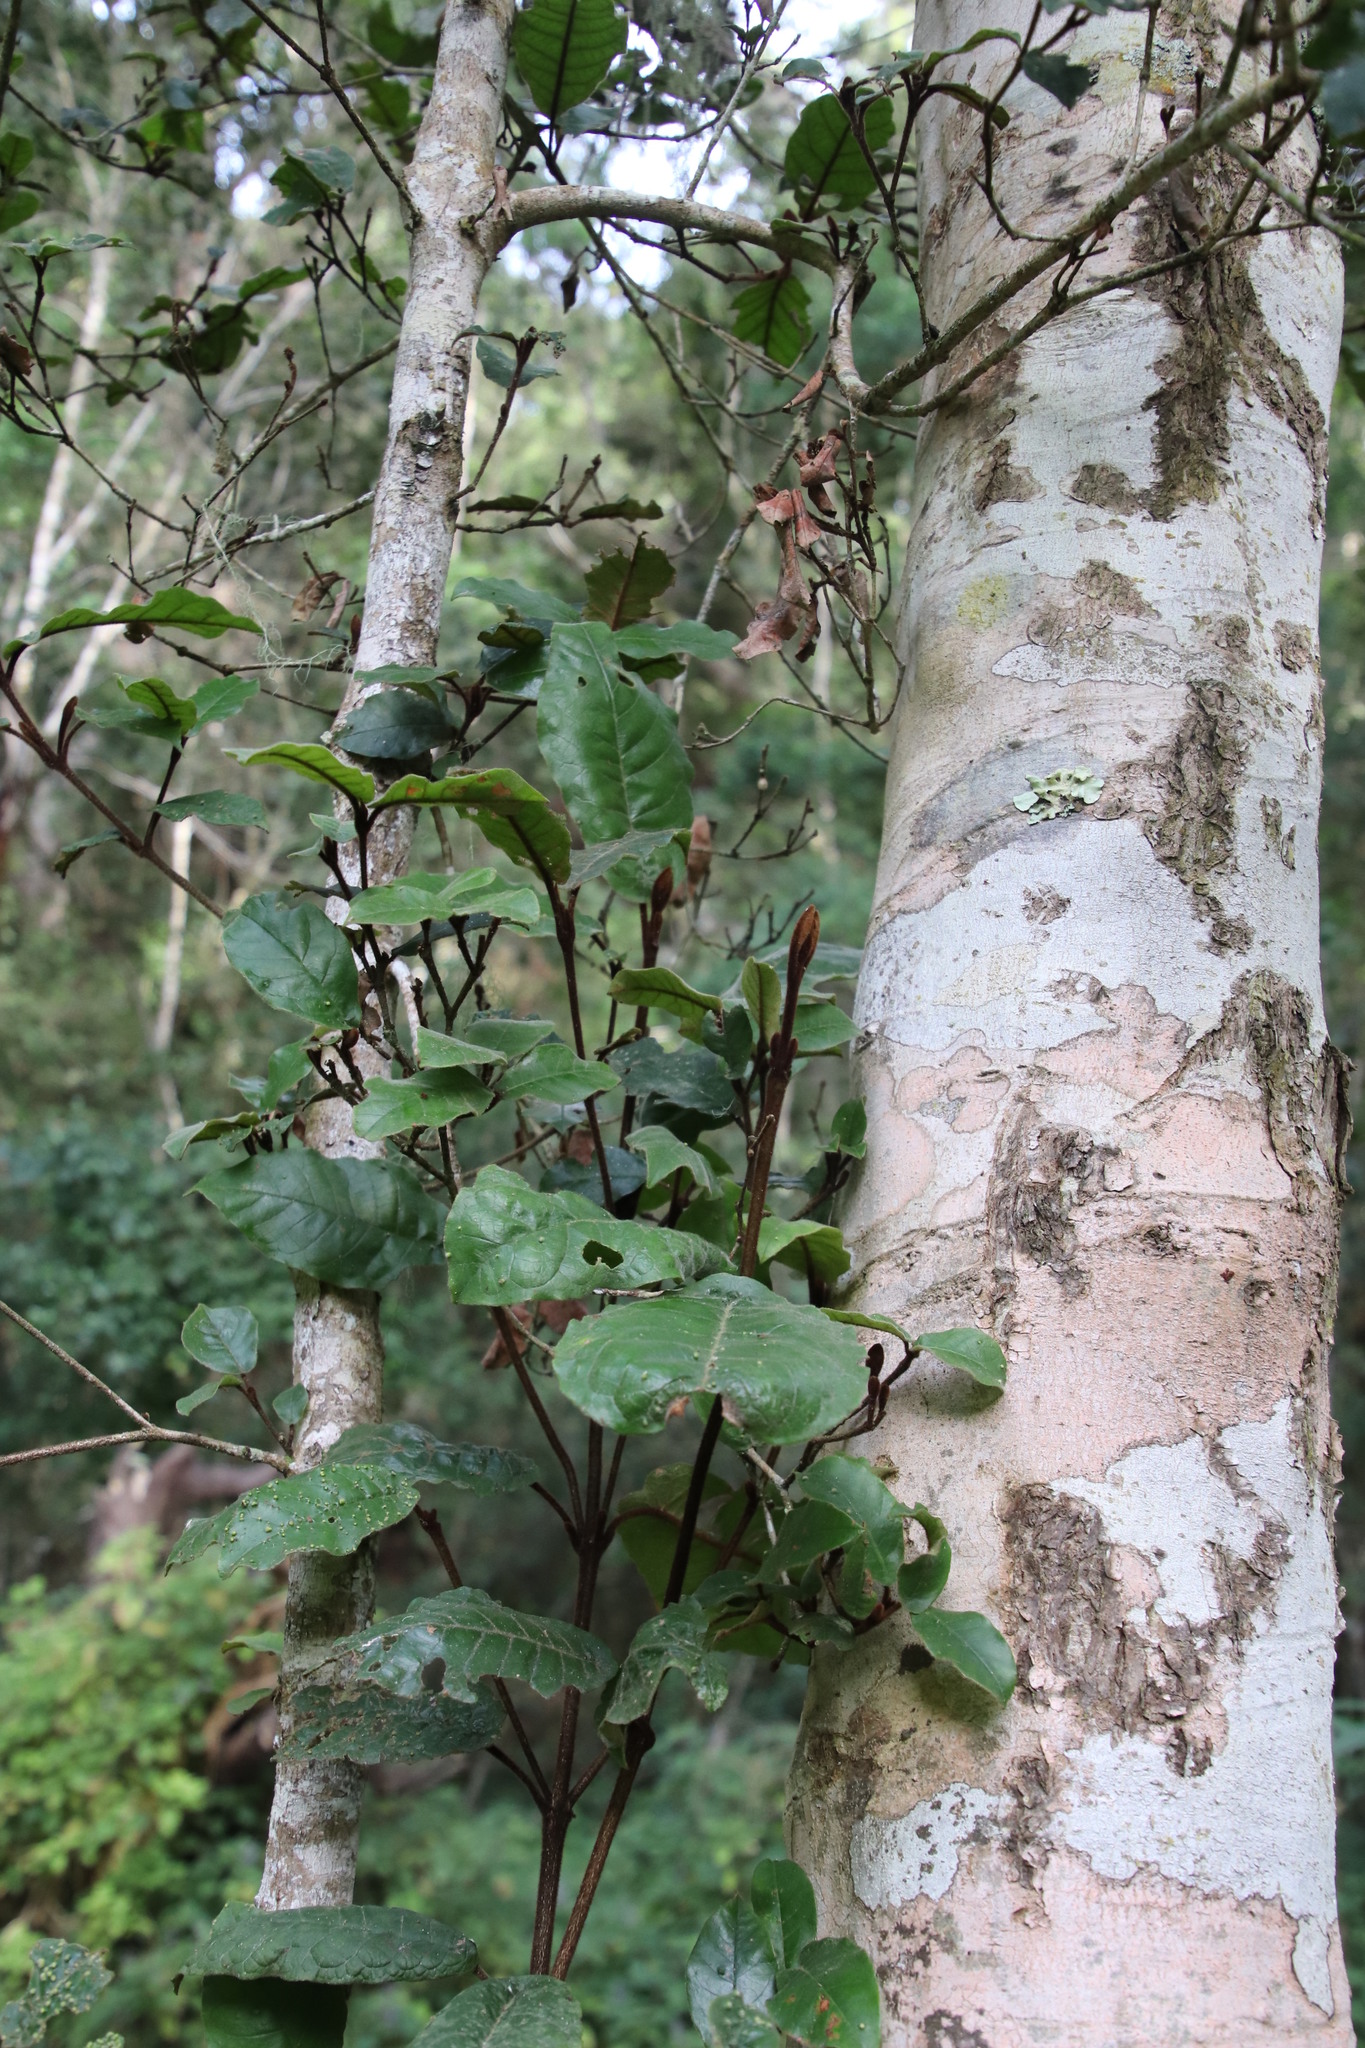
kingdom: Plantae
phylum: Tracheophyta
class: Magnoliopsida
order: Saxifragales
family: Hamamelidaceae
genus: Trichocladus
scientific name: Trichocladus crinitus
